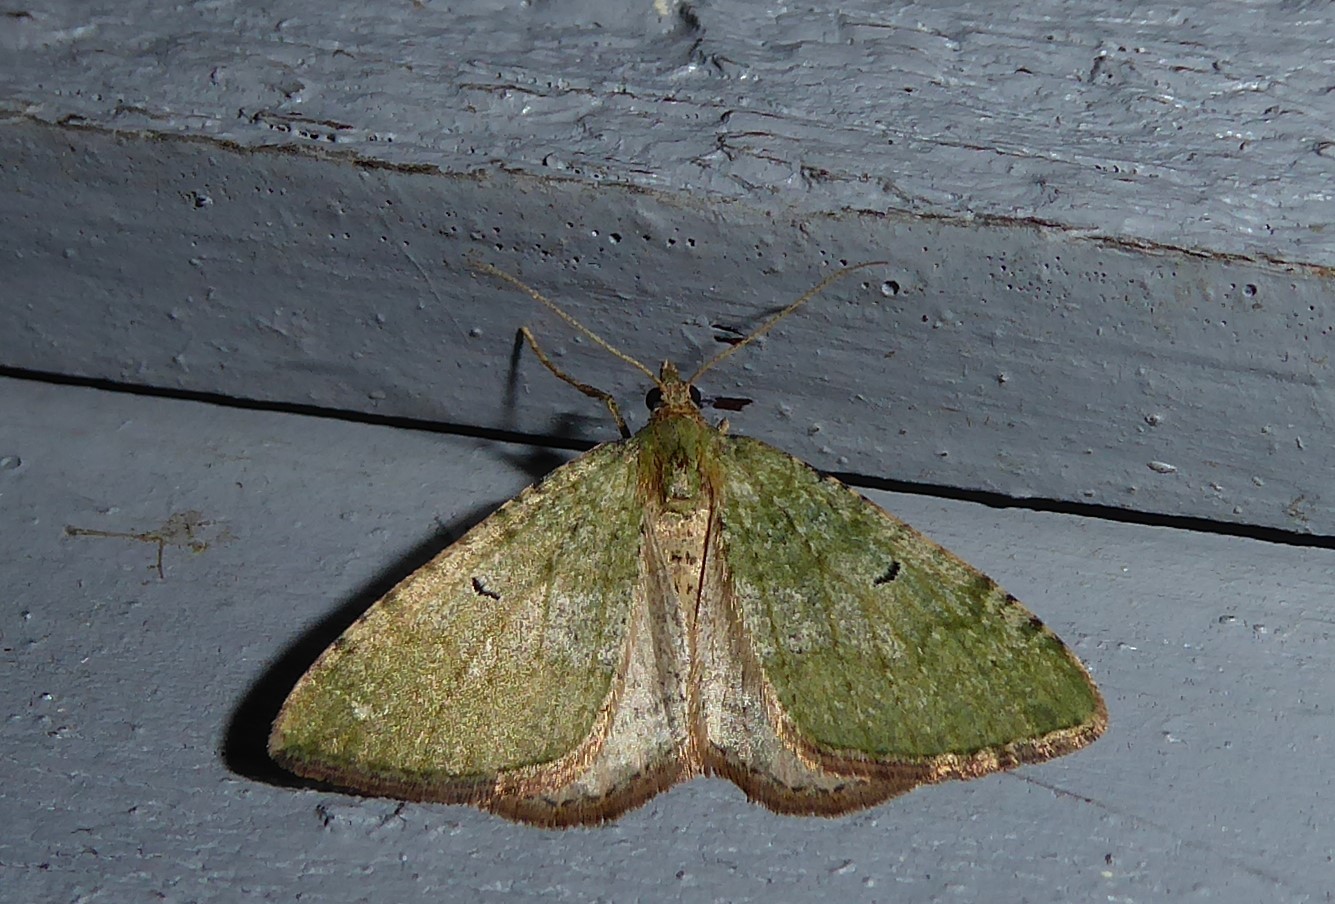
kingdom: Animalia
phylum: Arthropoda
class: Insecta
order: Lepidoptera
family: Geometridae
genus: Epyaxa
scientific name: Epyaxa rosearia
